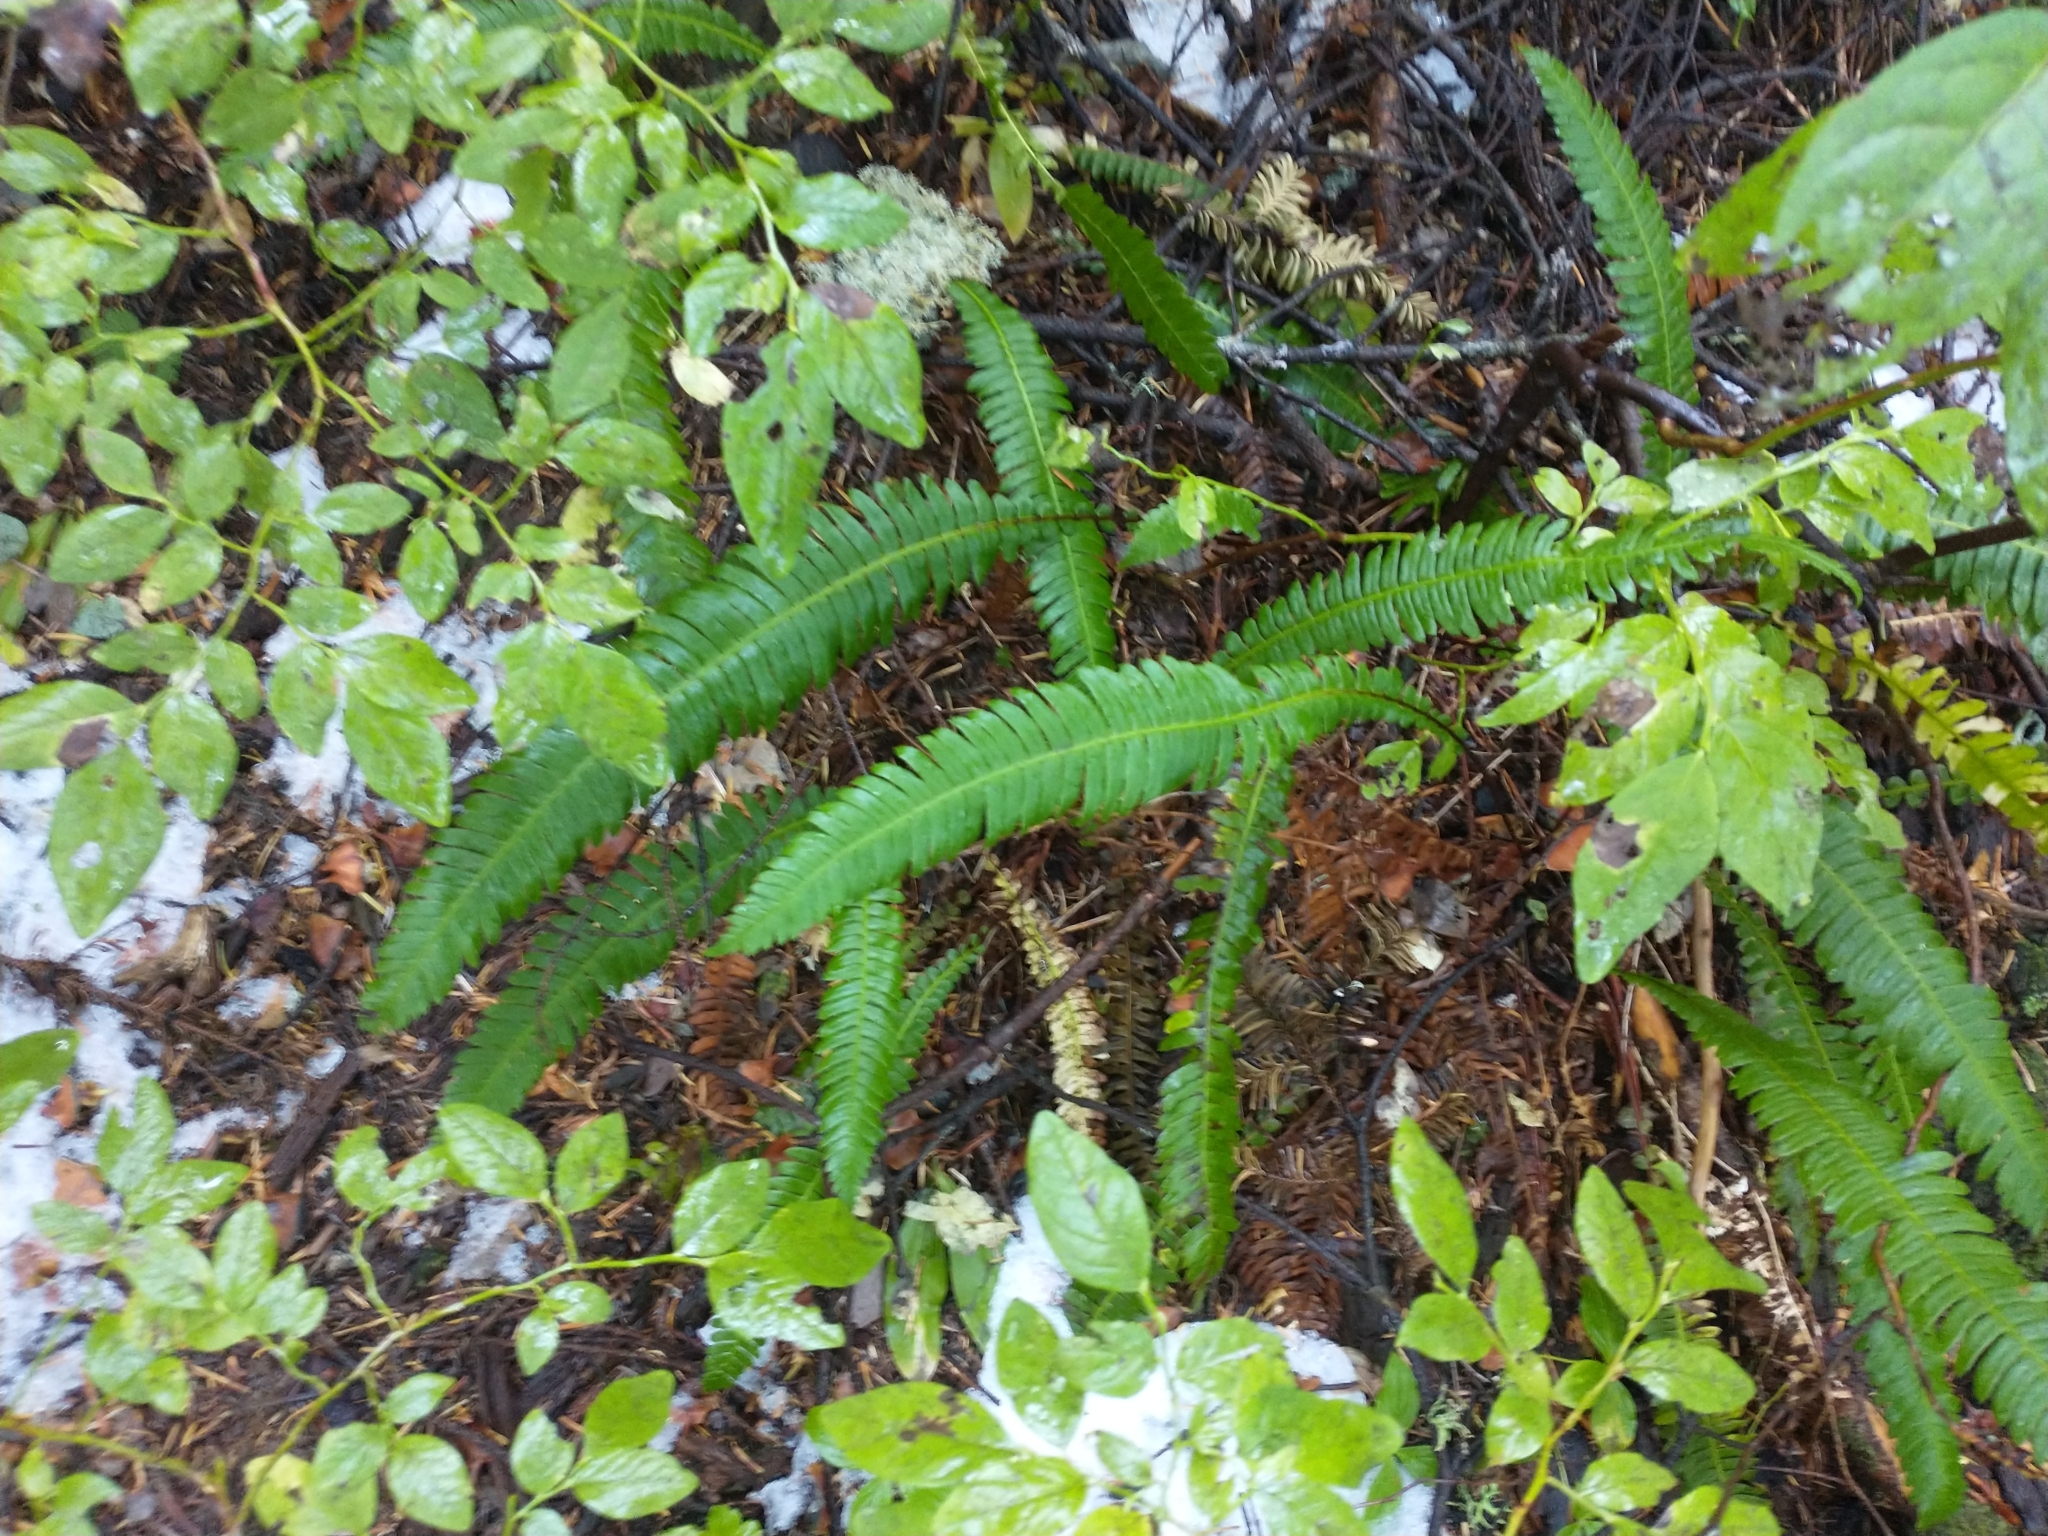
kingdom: Plantae
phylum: Tracheophyta
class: Polypodiopsida
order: Polypodiales
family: Blechnaceae
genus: Struthiopteris
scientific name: Struthiopteris spicant
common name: Deer fern
